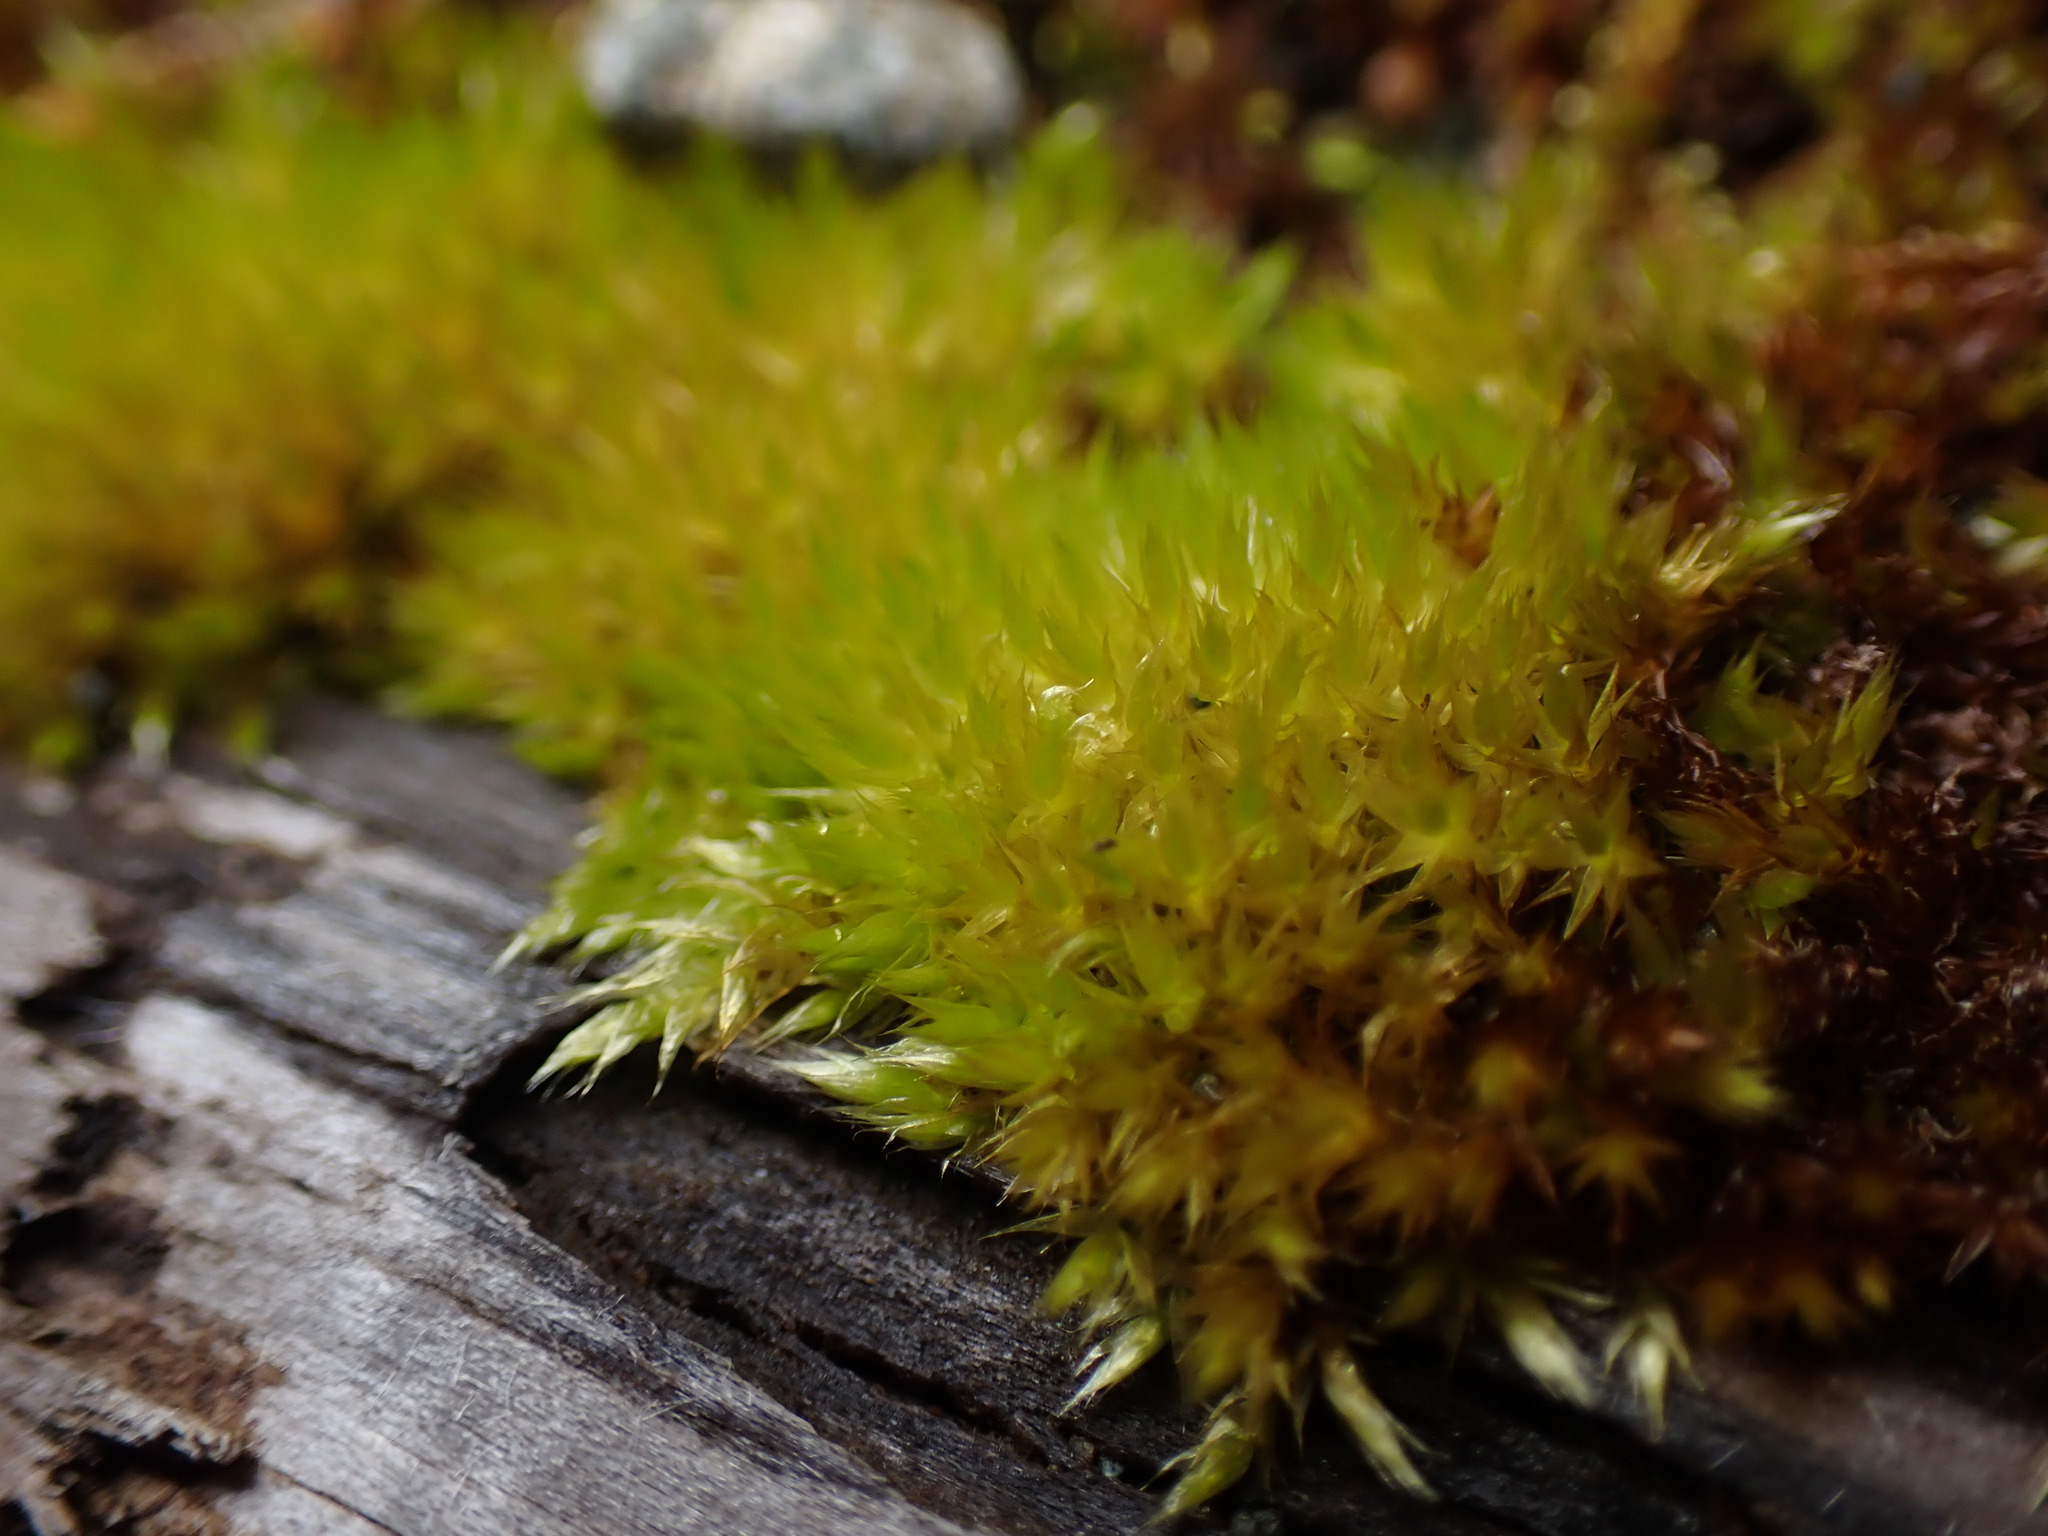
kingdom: Plantae
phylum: Bryophyta
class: Bryopsida
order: Hypnales
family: Brachytheciaceae
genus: Homalothecium
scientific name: Homalothecium nuttallii
